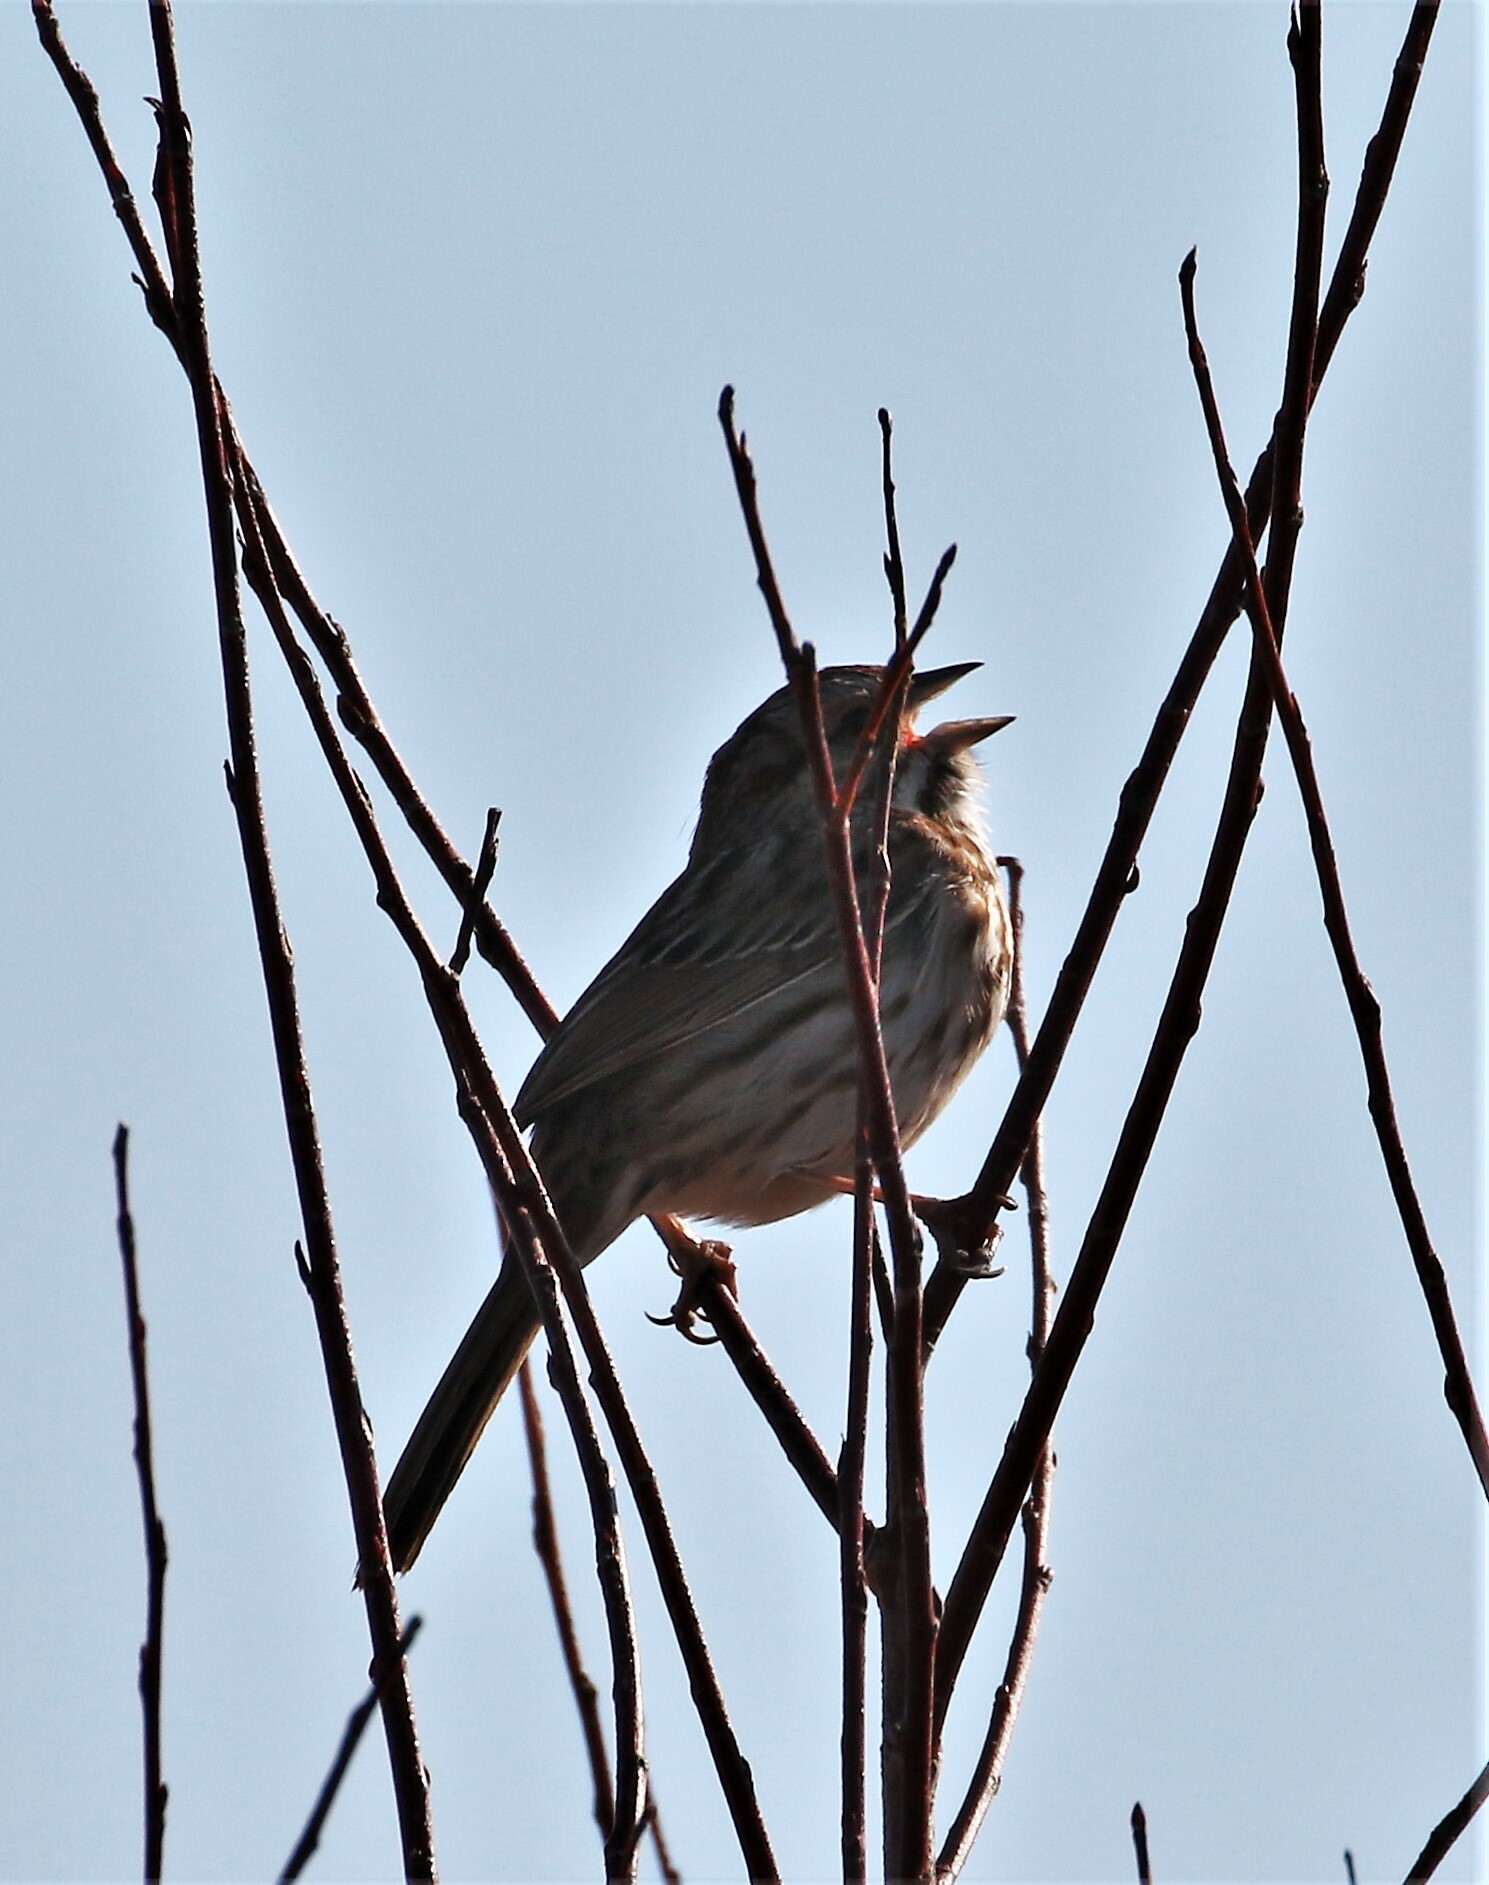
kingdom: Animalia
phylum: Chordata
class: Aves
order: Passeriformes
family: Passerellidae
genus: Melospiza
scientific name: Melospiza melodia
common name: Song sparrow
